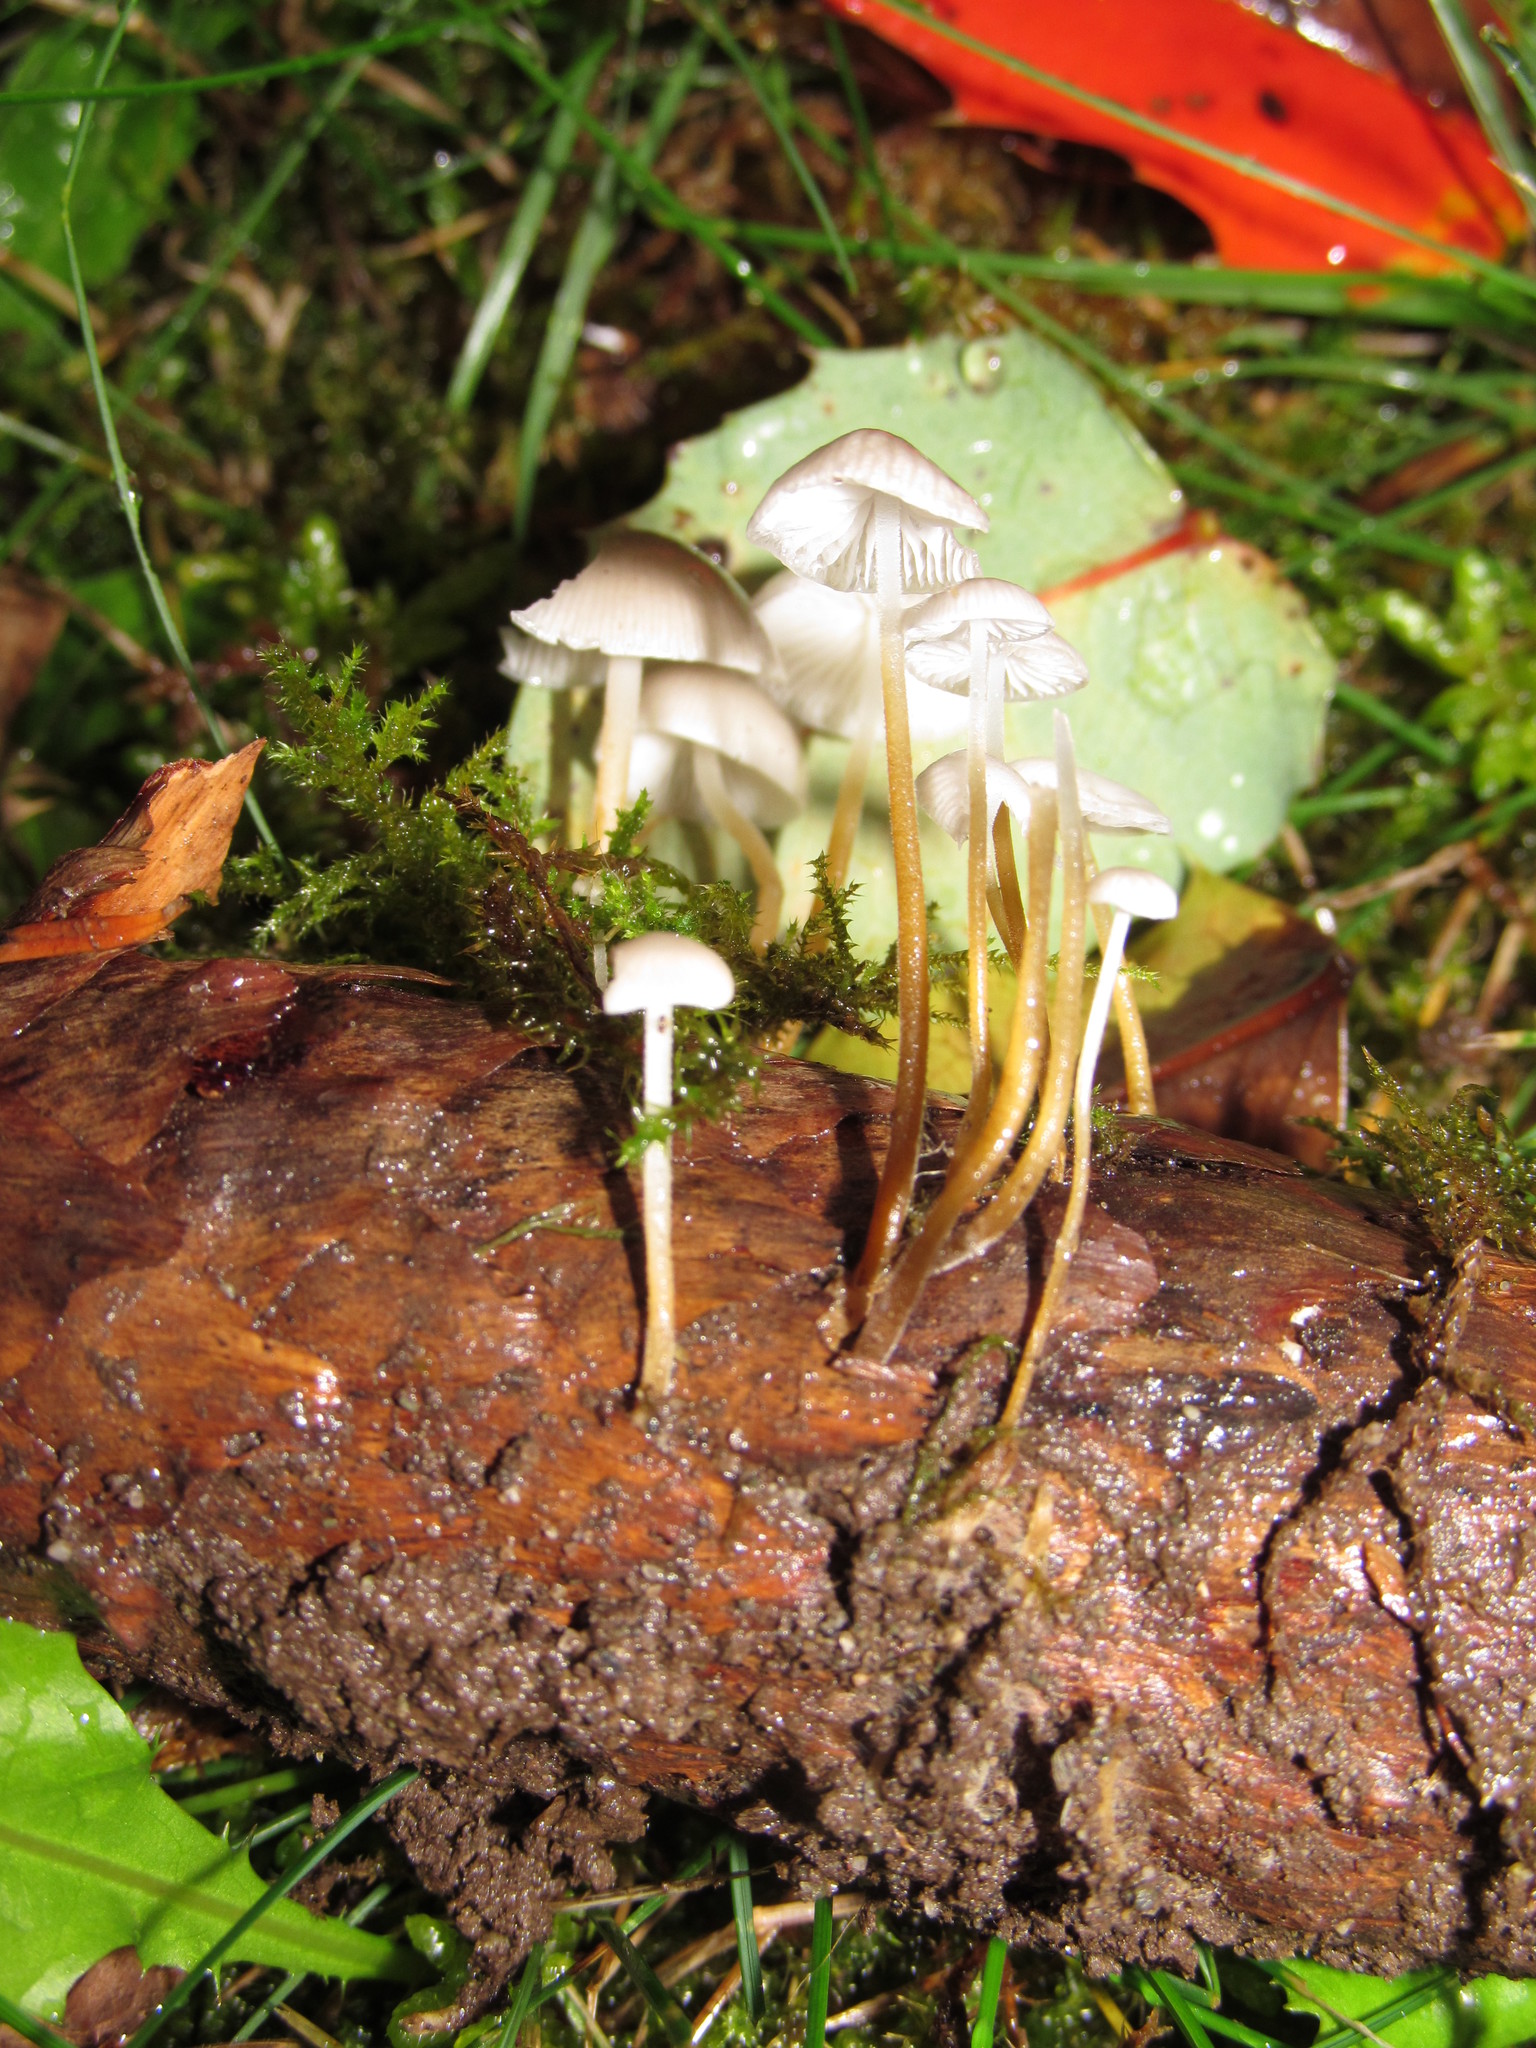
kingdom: Fungi
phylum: Basidiomycota
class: Agaricomycetes
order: Agaricales
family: Physalacriaceae
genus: Strobilurus
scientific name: Strobilurus trullisatus
